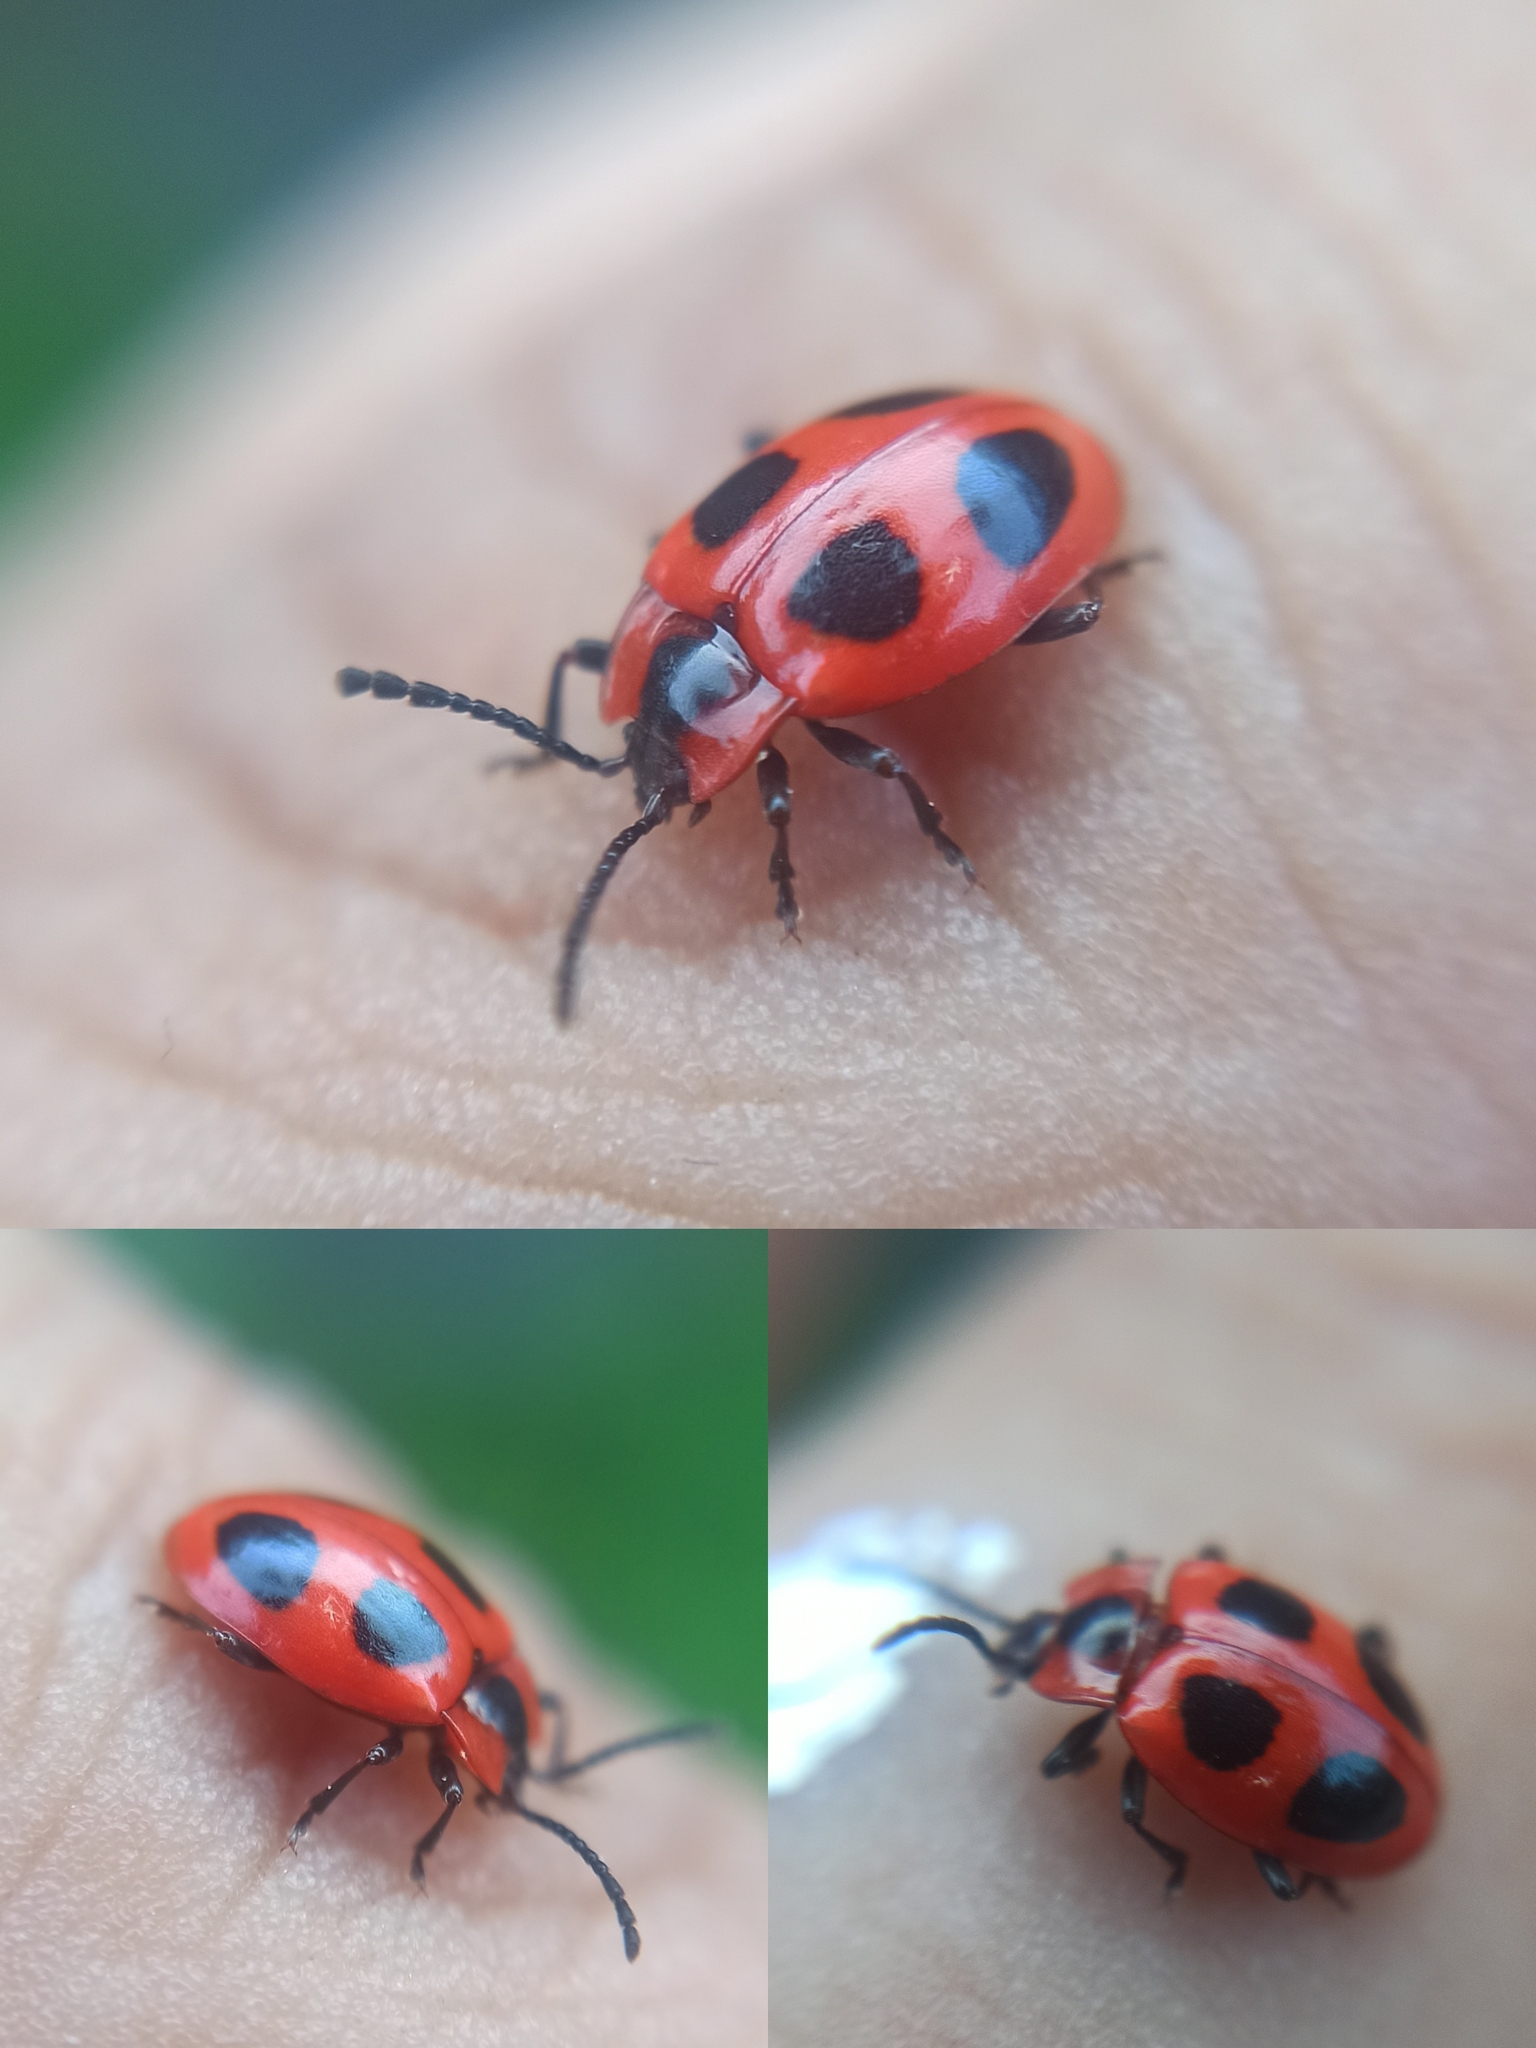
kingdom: Animalia
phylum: Arthropoda
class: Insecta
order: Coleoptera
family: Endomychidae
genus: Endomychus
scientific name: Endomychus coccineus
